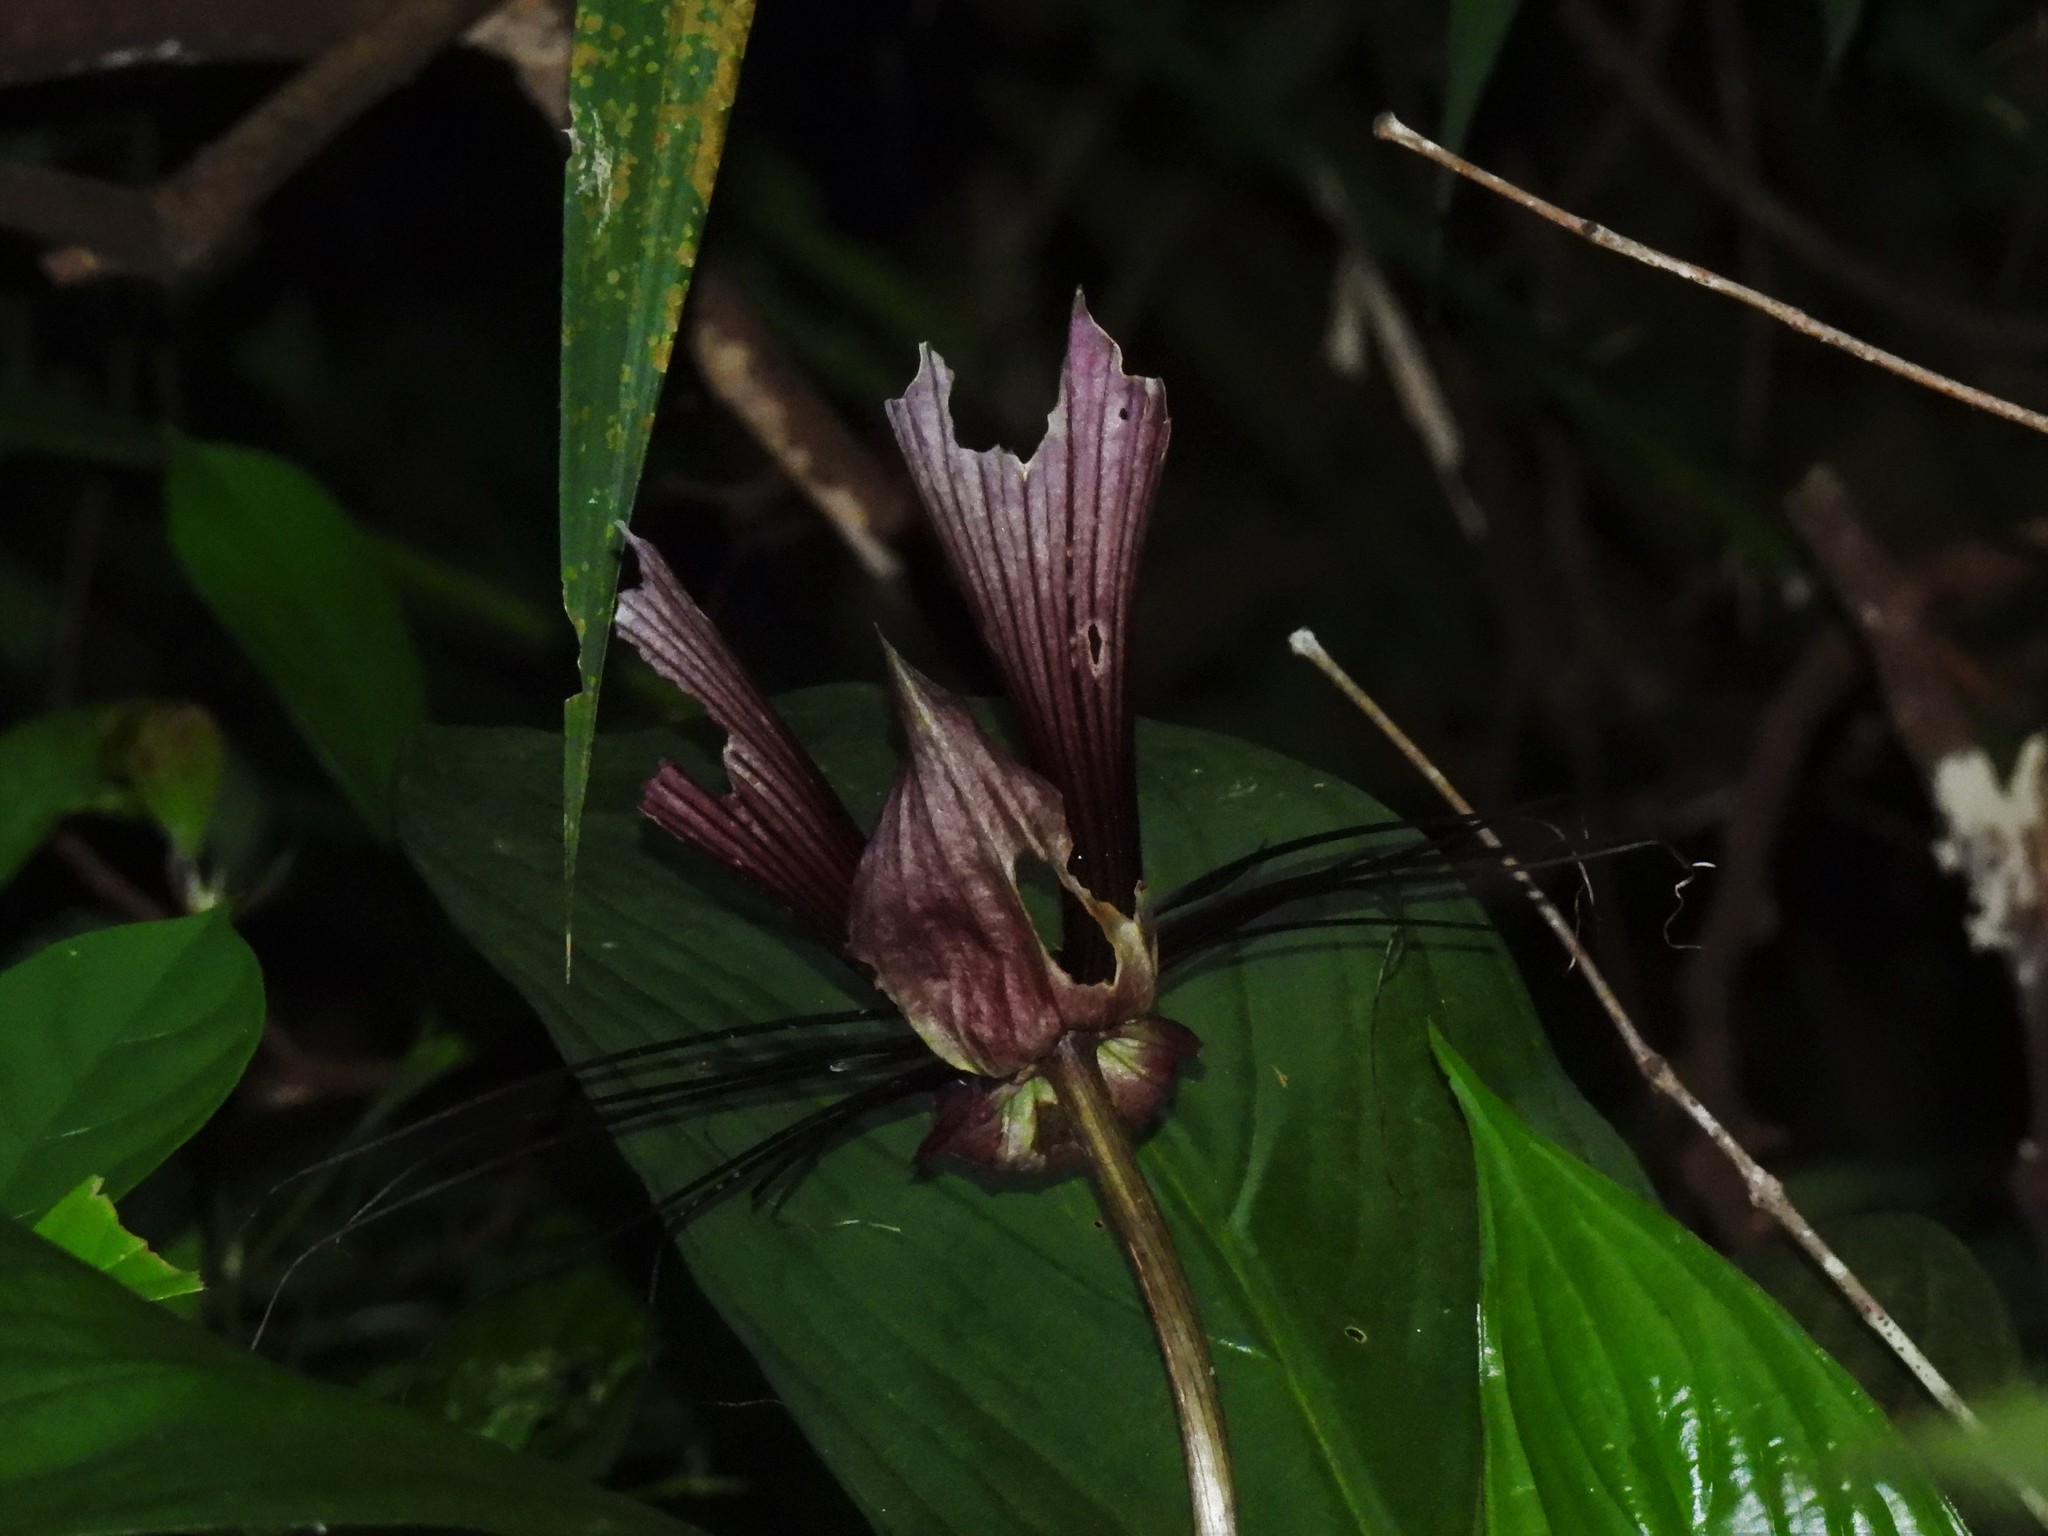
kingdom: Plantae
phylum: Tracheophyta
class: Liliopsida
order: Dioscoreales
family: Dioscoreaceae
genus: Tacca
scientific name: Tacca cristata
